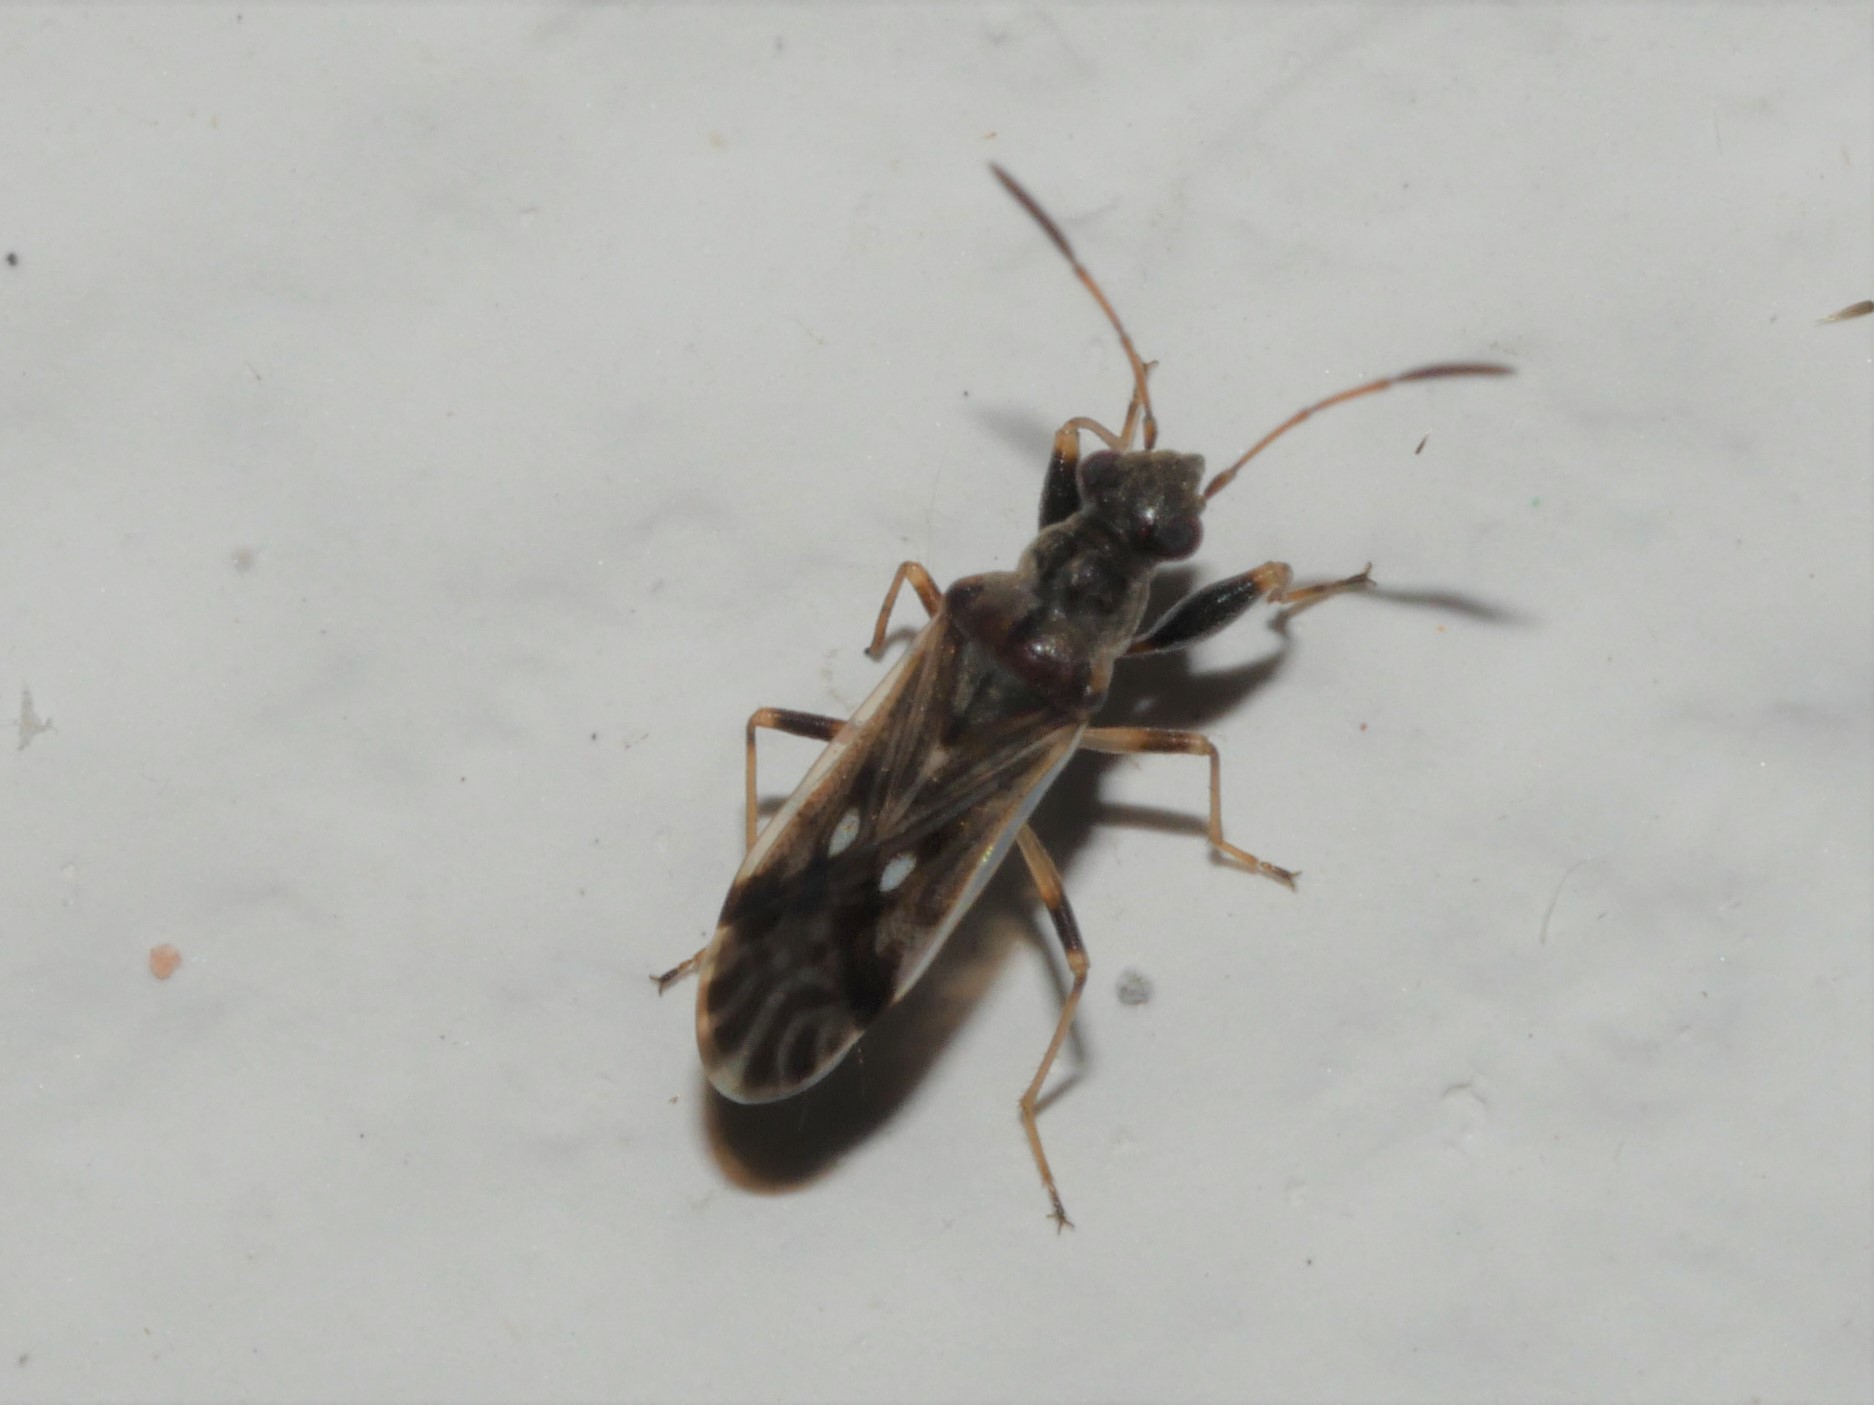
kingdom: Animalia
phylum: Arthropoda
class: Insecta
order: Hemiptera
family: Rhyparochromidae
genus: Pseudopachybrachius
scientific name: Pseudopachybrachius reductus
